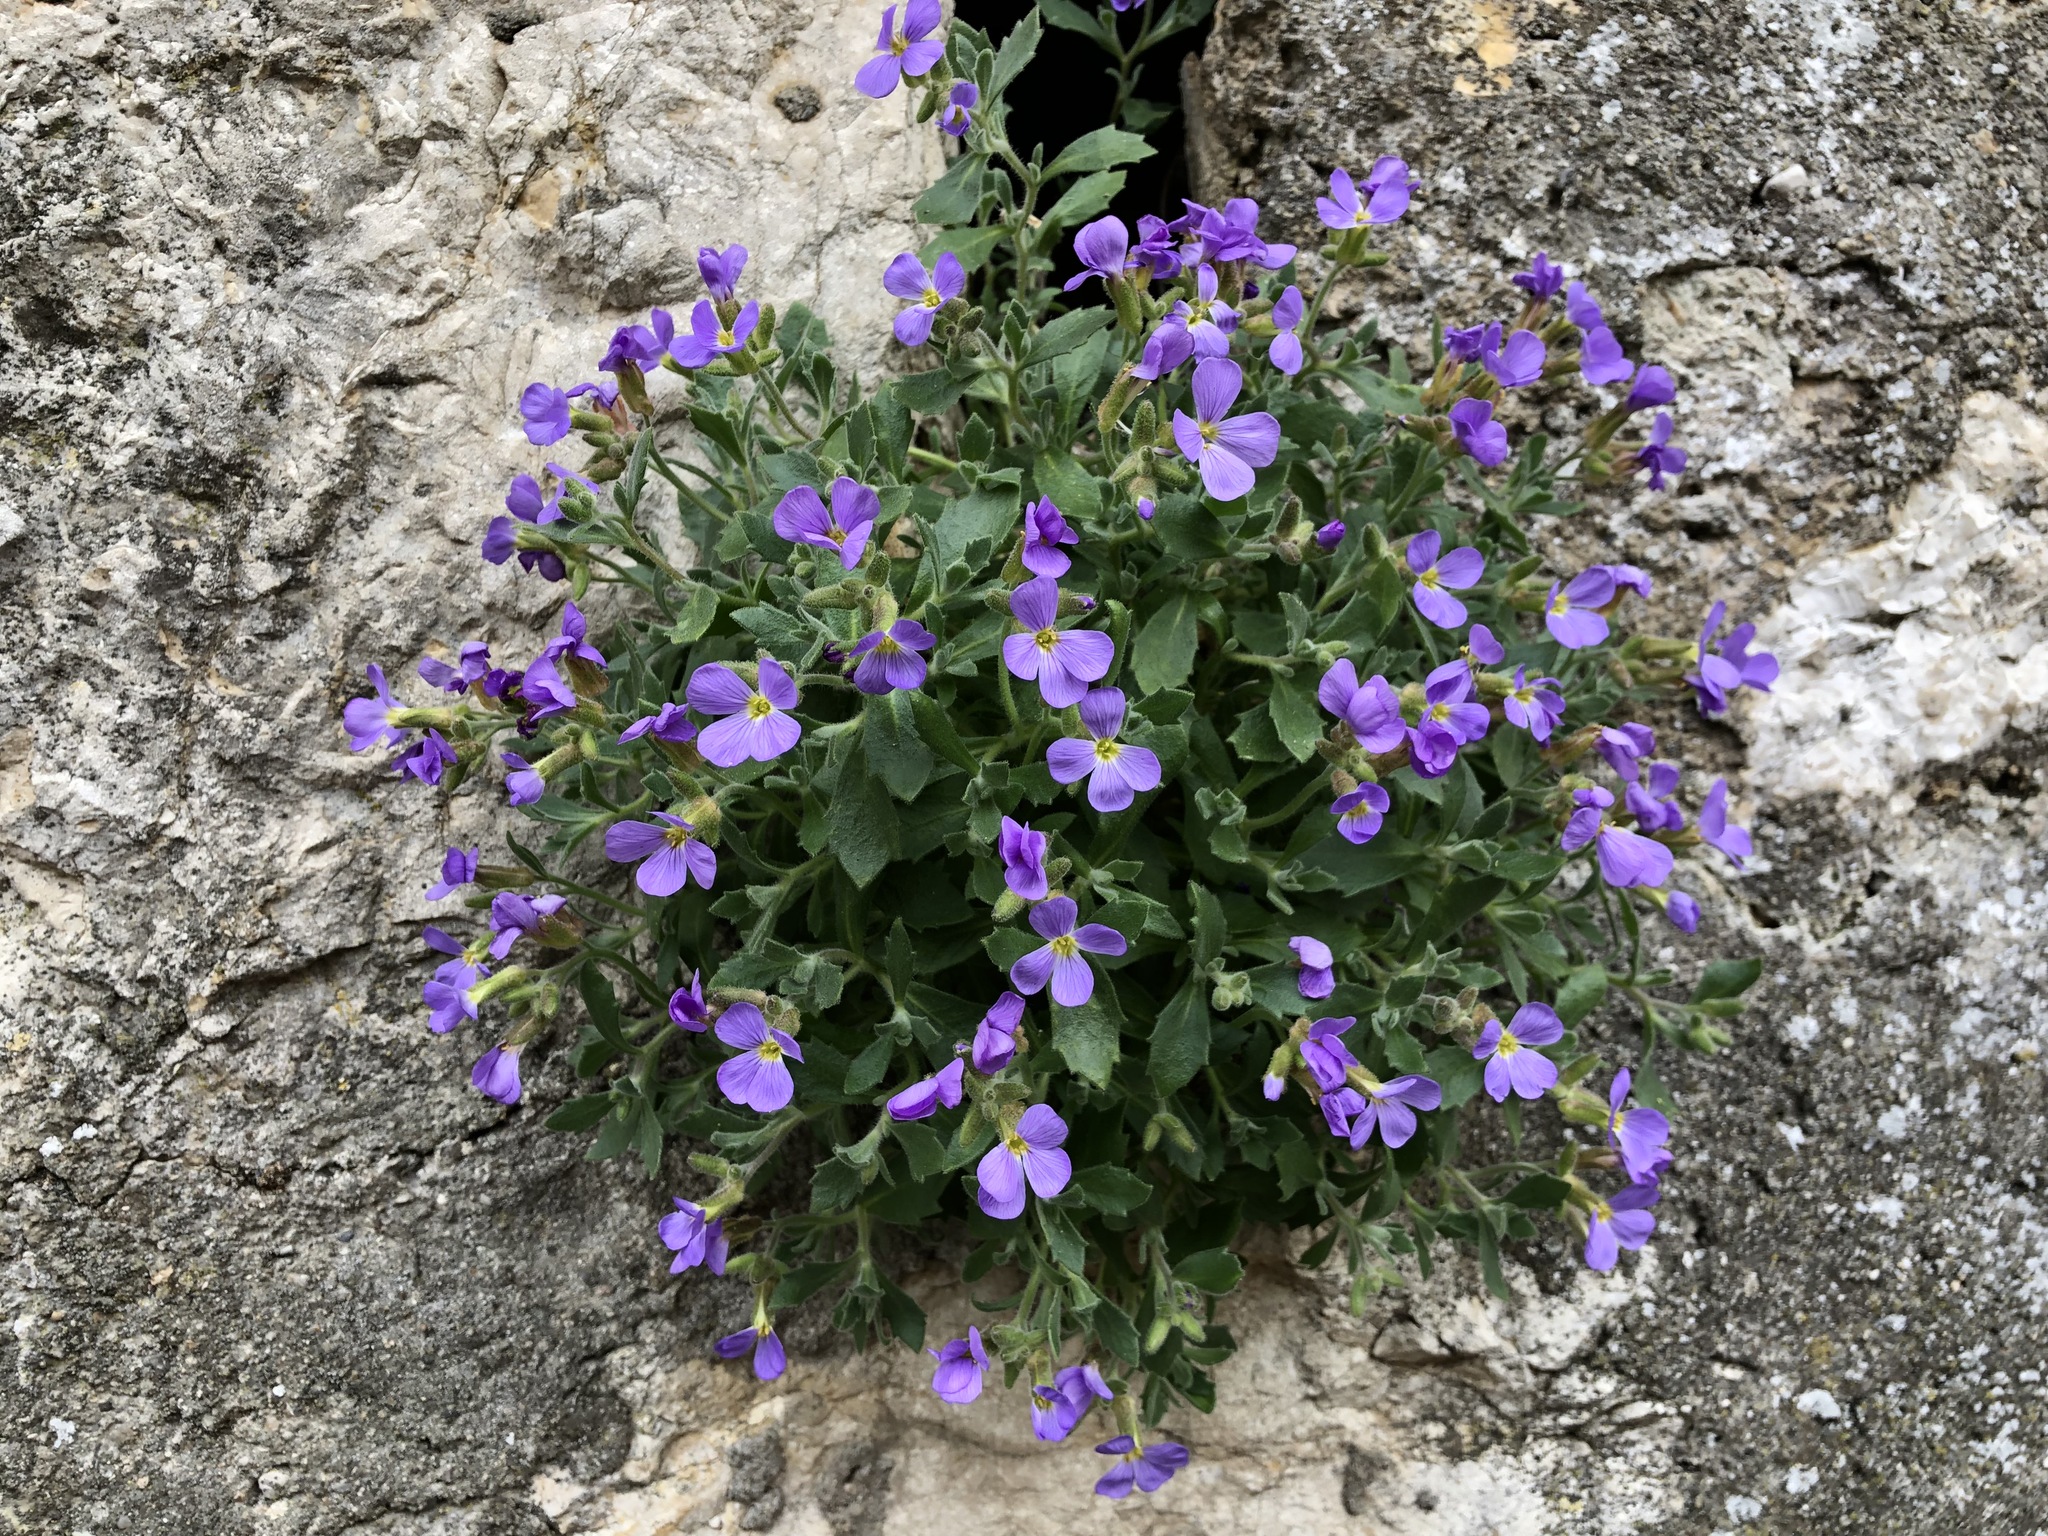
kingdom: Plantae
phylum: Tracheophyta
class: Magnoliopsida
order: Brassicales
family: Brassicaceae
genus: Aubrieta
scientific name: Aubrieta deltoidea
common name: Aubretia
